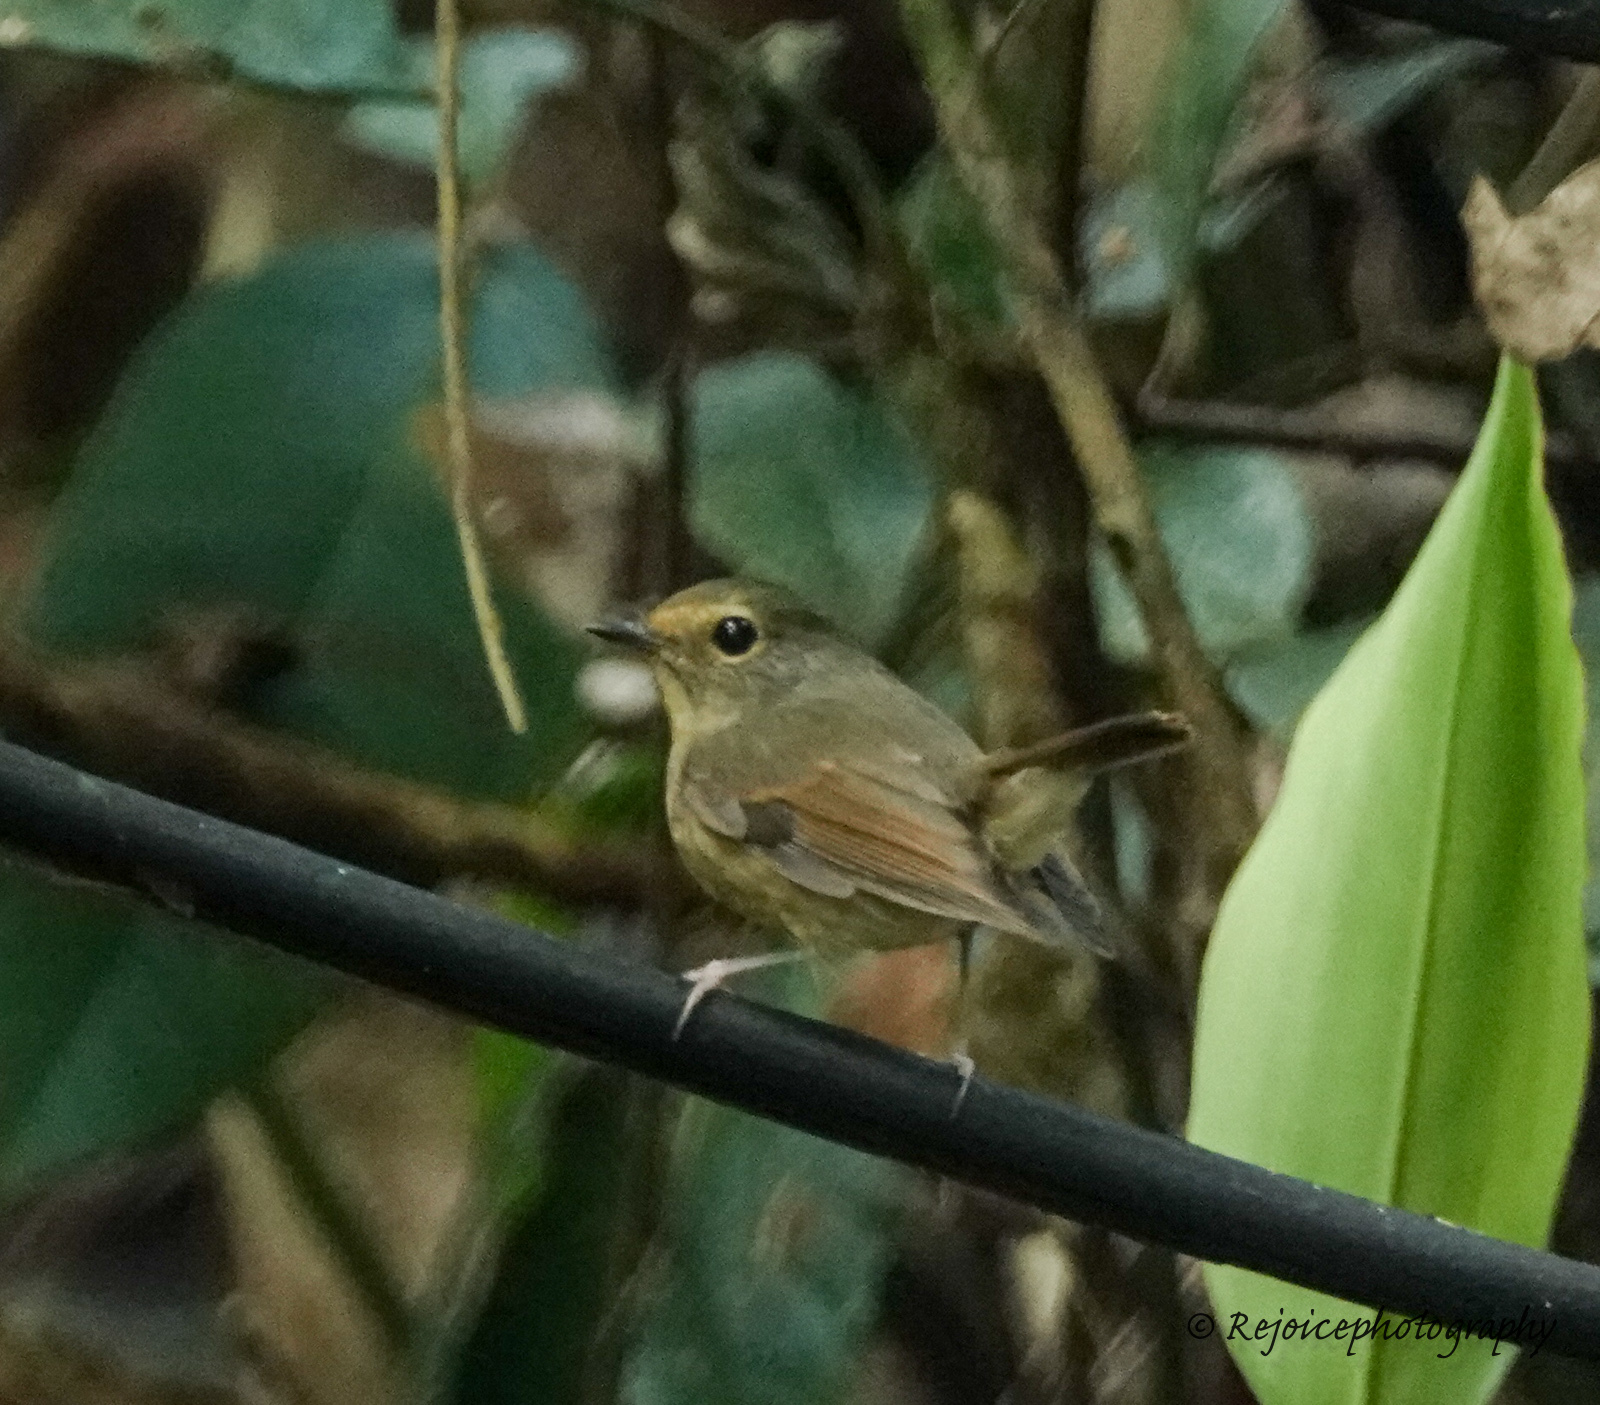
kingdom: Animalia
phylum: Chordata
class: Aves
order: Passeriformes
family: Muscicapidae
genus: Ficedula
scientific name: Ficedula hyperythra
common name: Snowy-browed flycatcher
